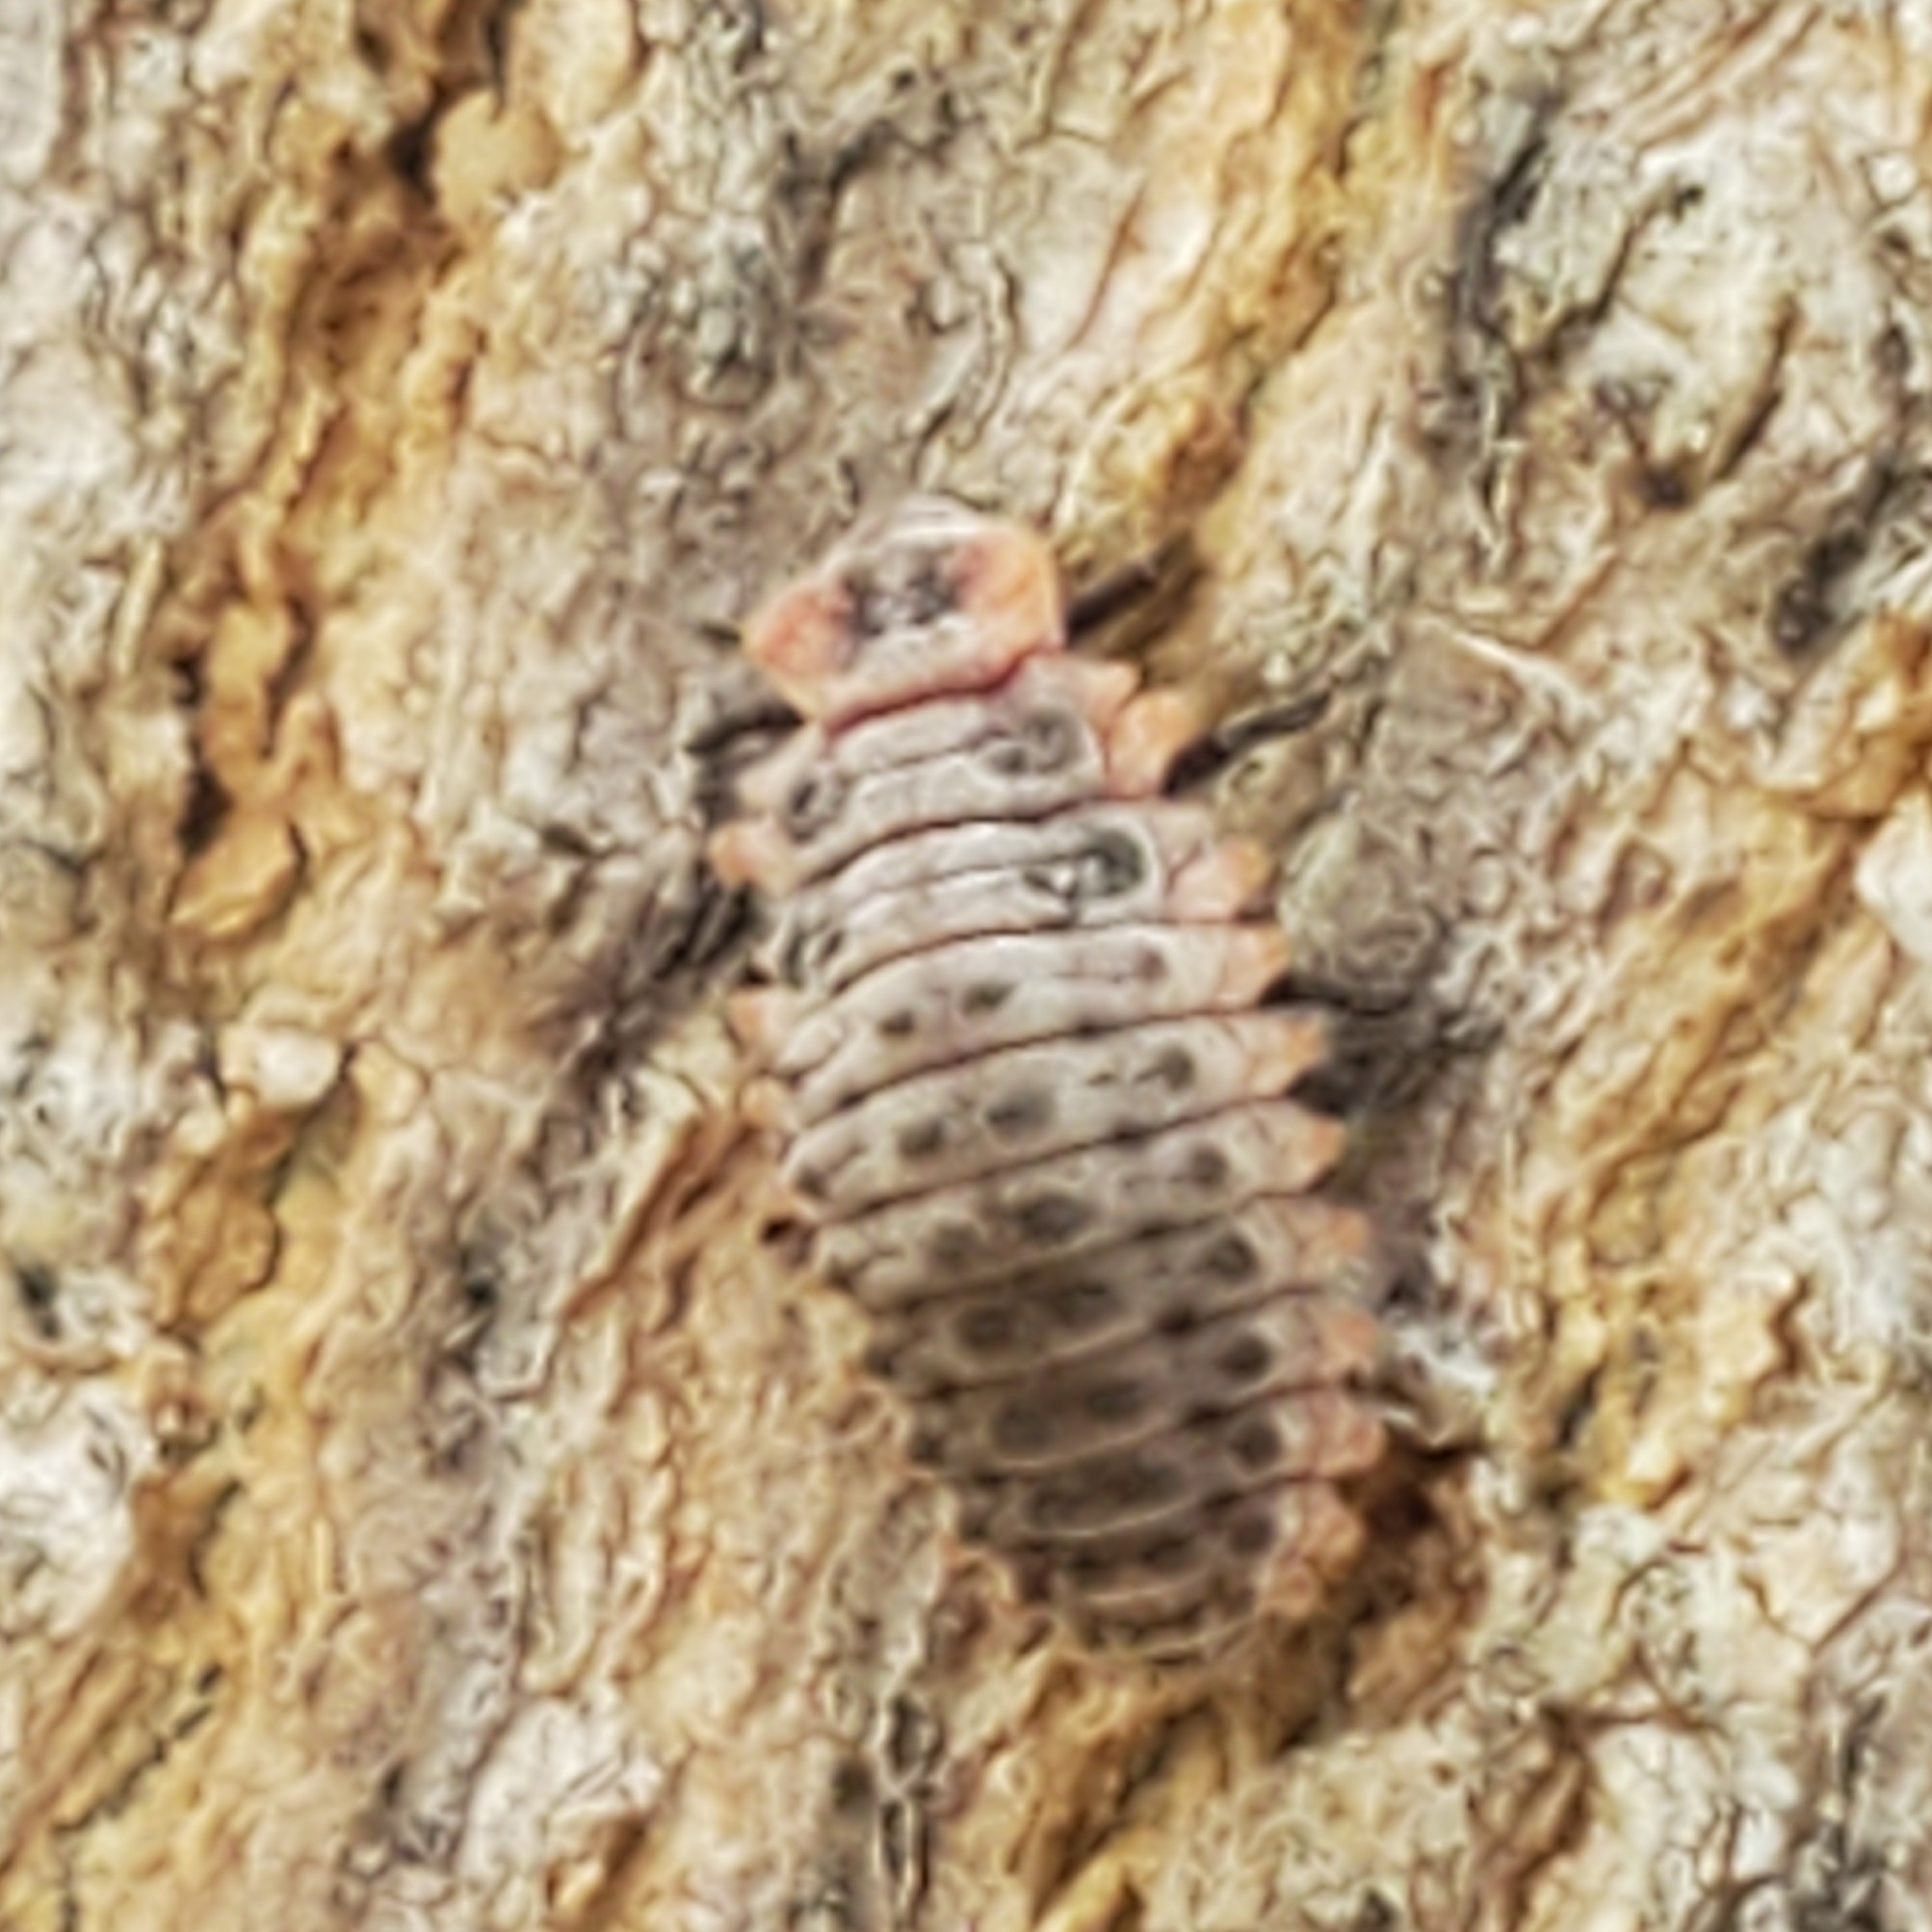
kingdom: Animalia
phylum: Arthropoda
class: Insecta
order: Coleoptera
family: Coccinellidae
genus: Novius
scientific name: Novius cardinalis
